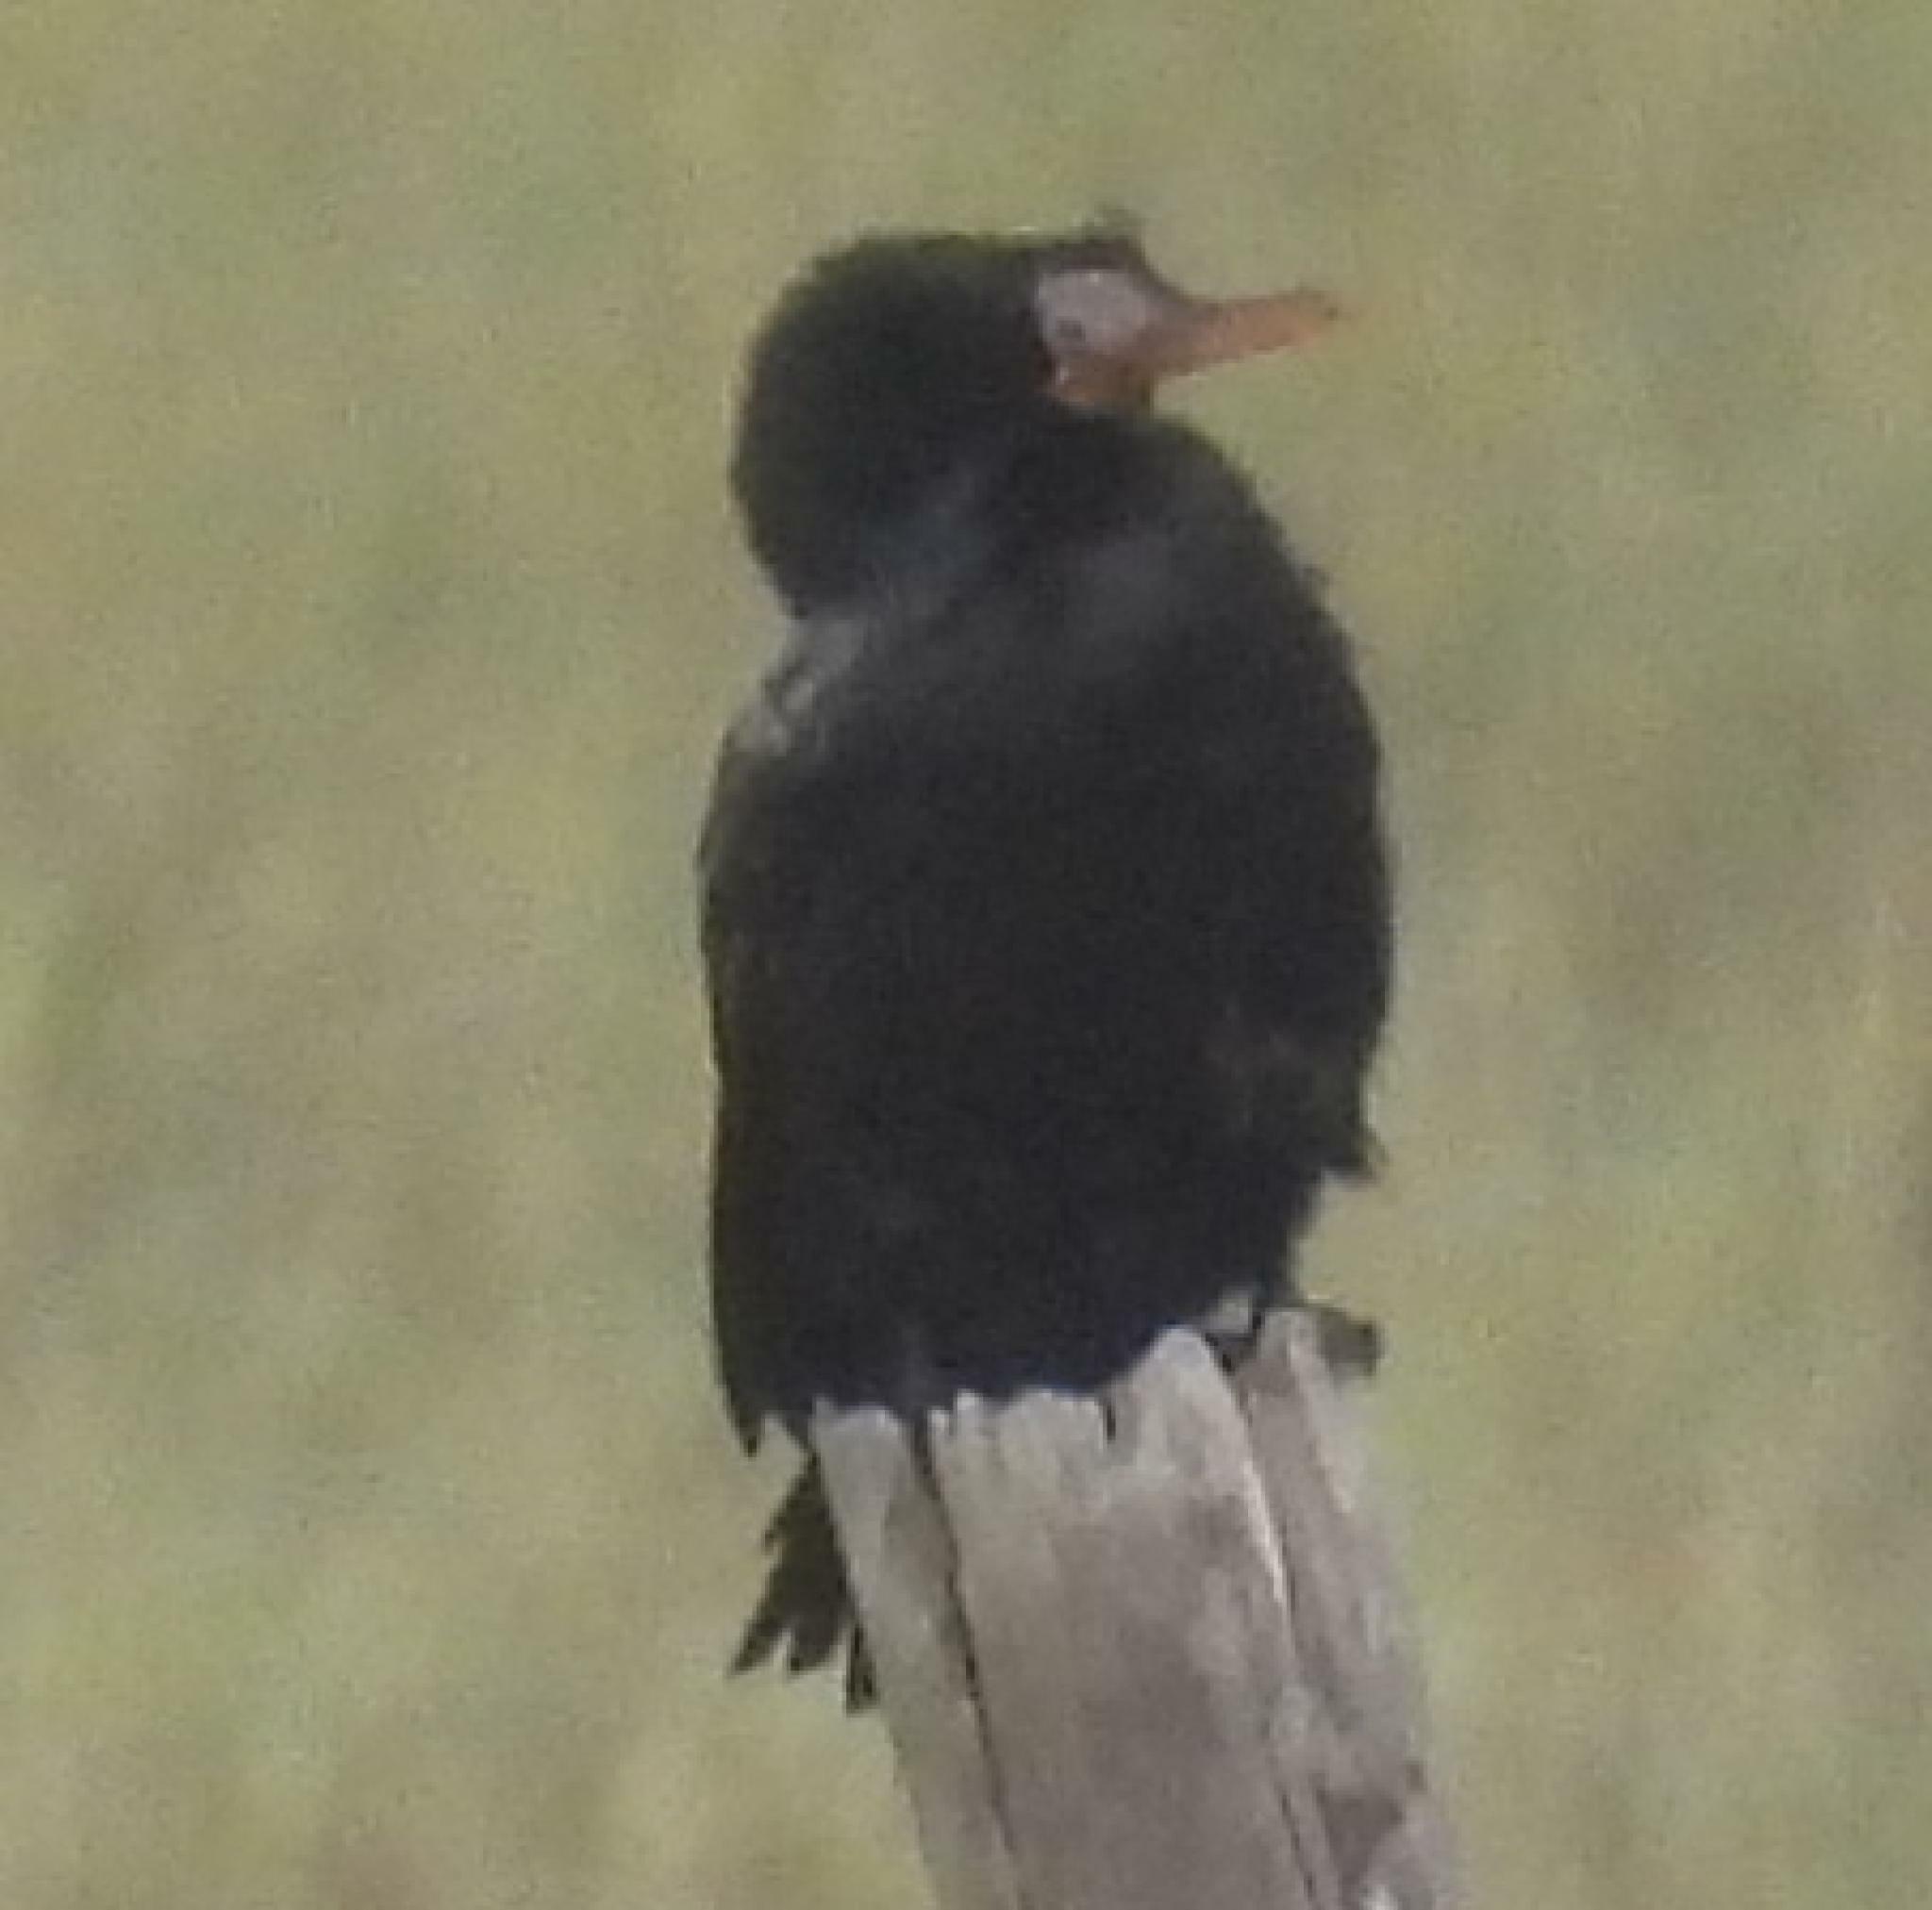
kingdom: Animalia
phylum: Chordata
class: Aves
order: Suliformes
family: Phalacrocoracidae
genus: Microcarbo
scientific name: Microcarbo africanus
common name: Long-tailed cormorant
